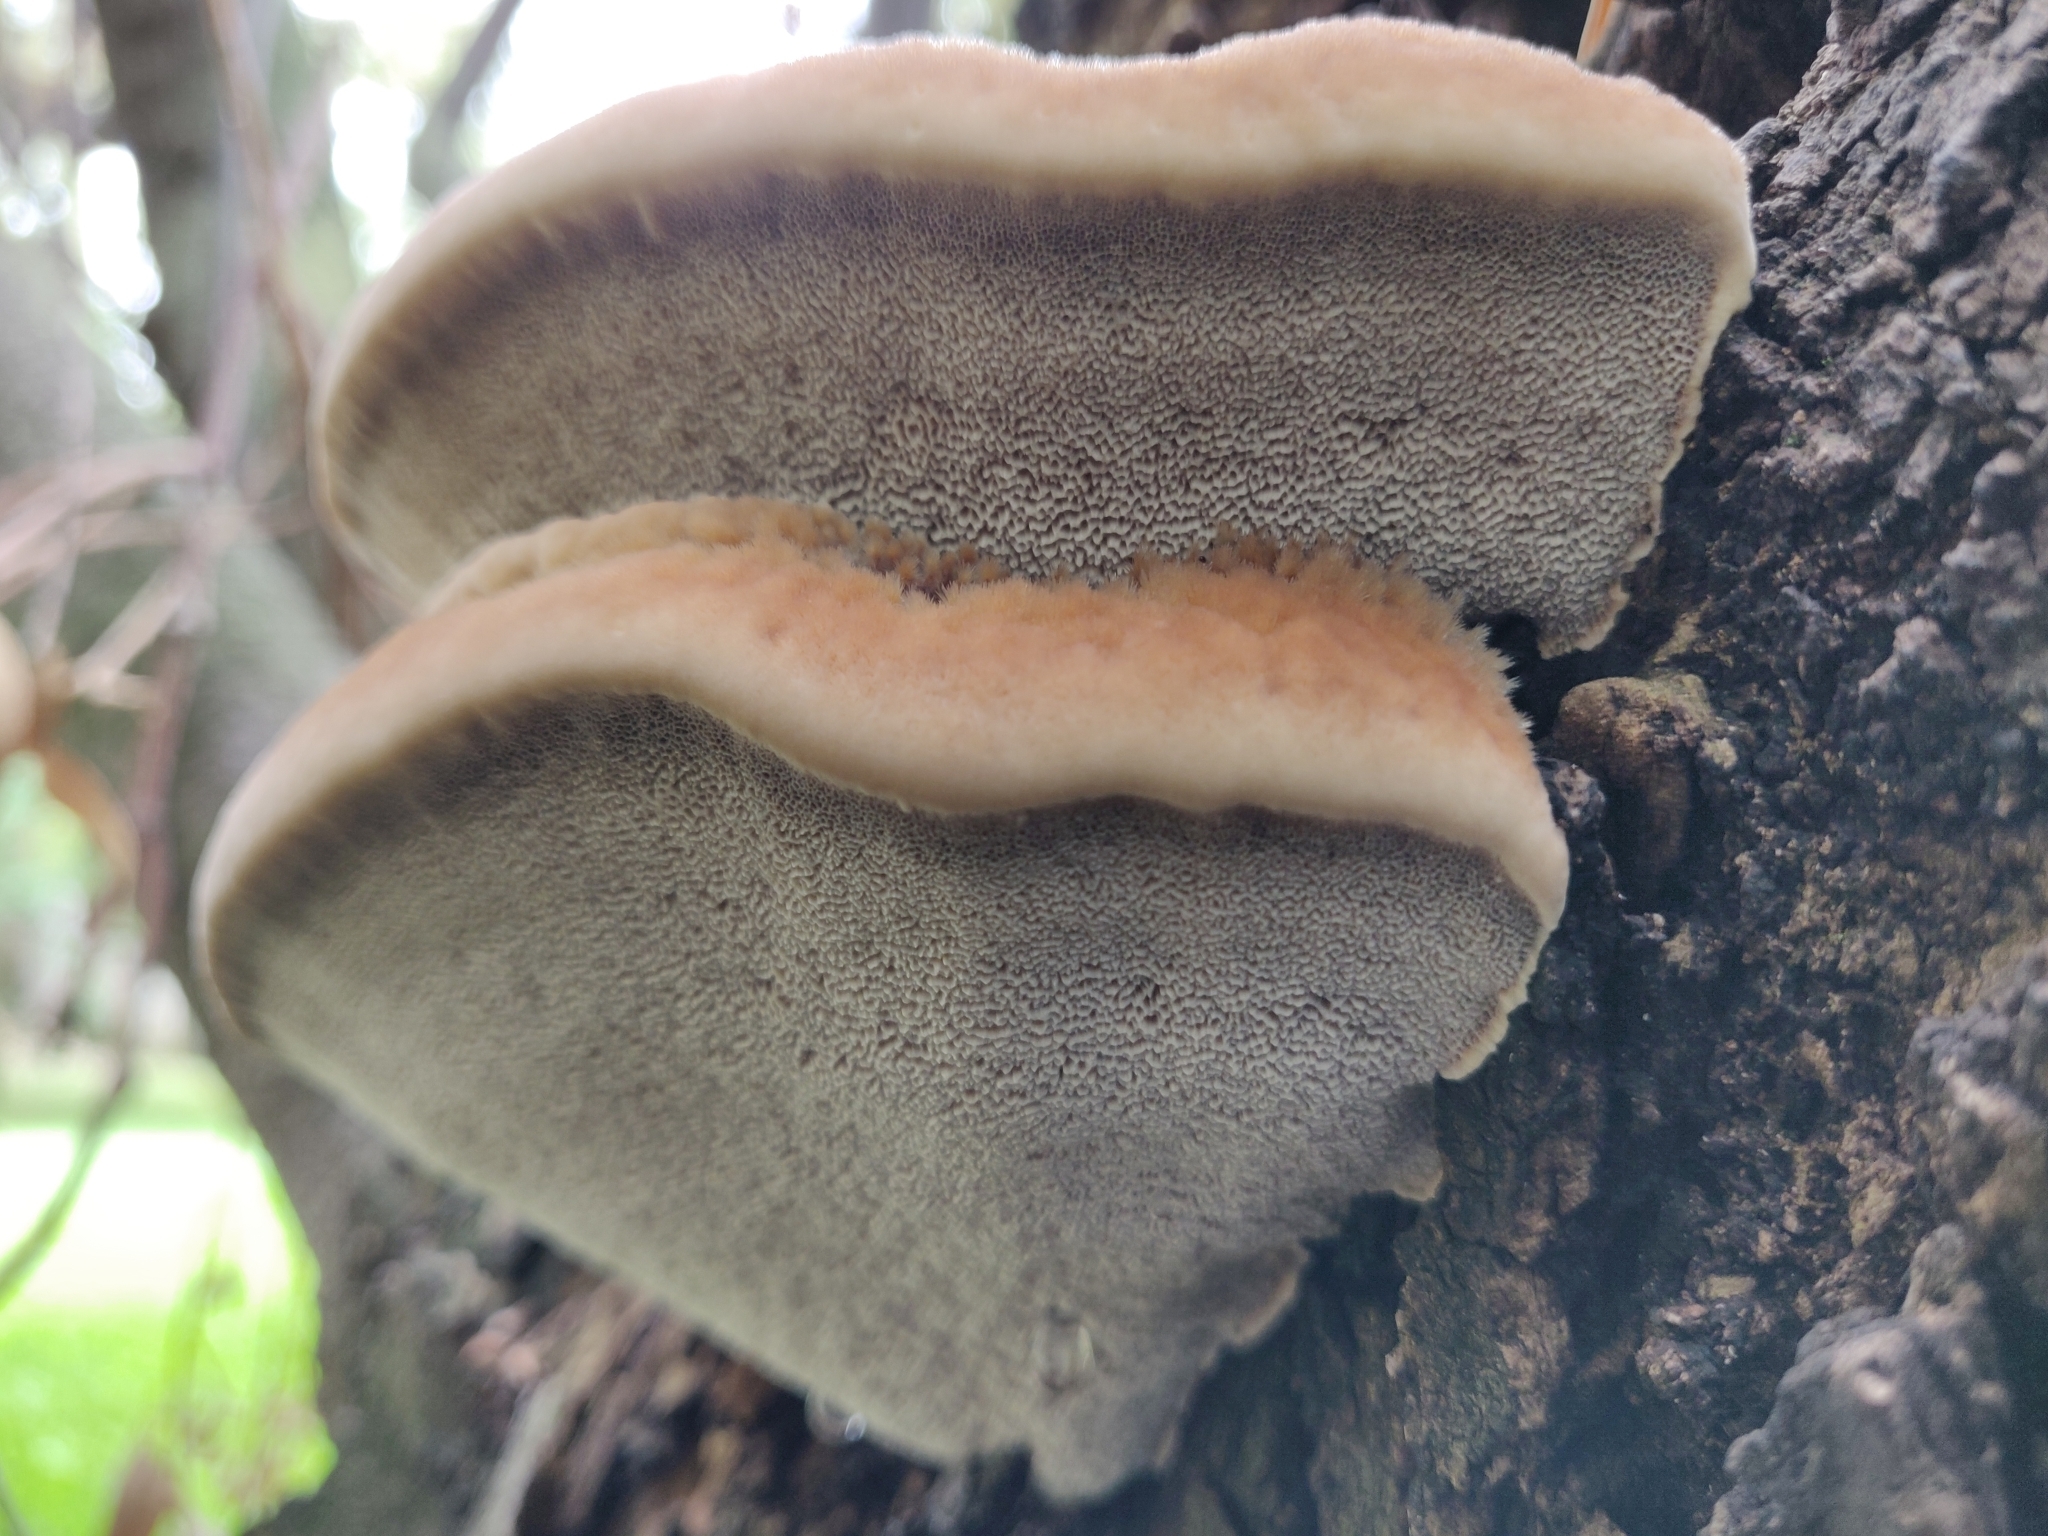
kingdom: Fungi
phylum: Basidiomycota
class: Agaricomycetes
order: Hymenochaetales
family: Hymenochaetaceae
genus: Inocutis
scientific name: Inocutis tamaricis
